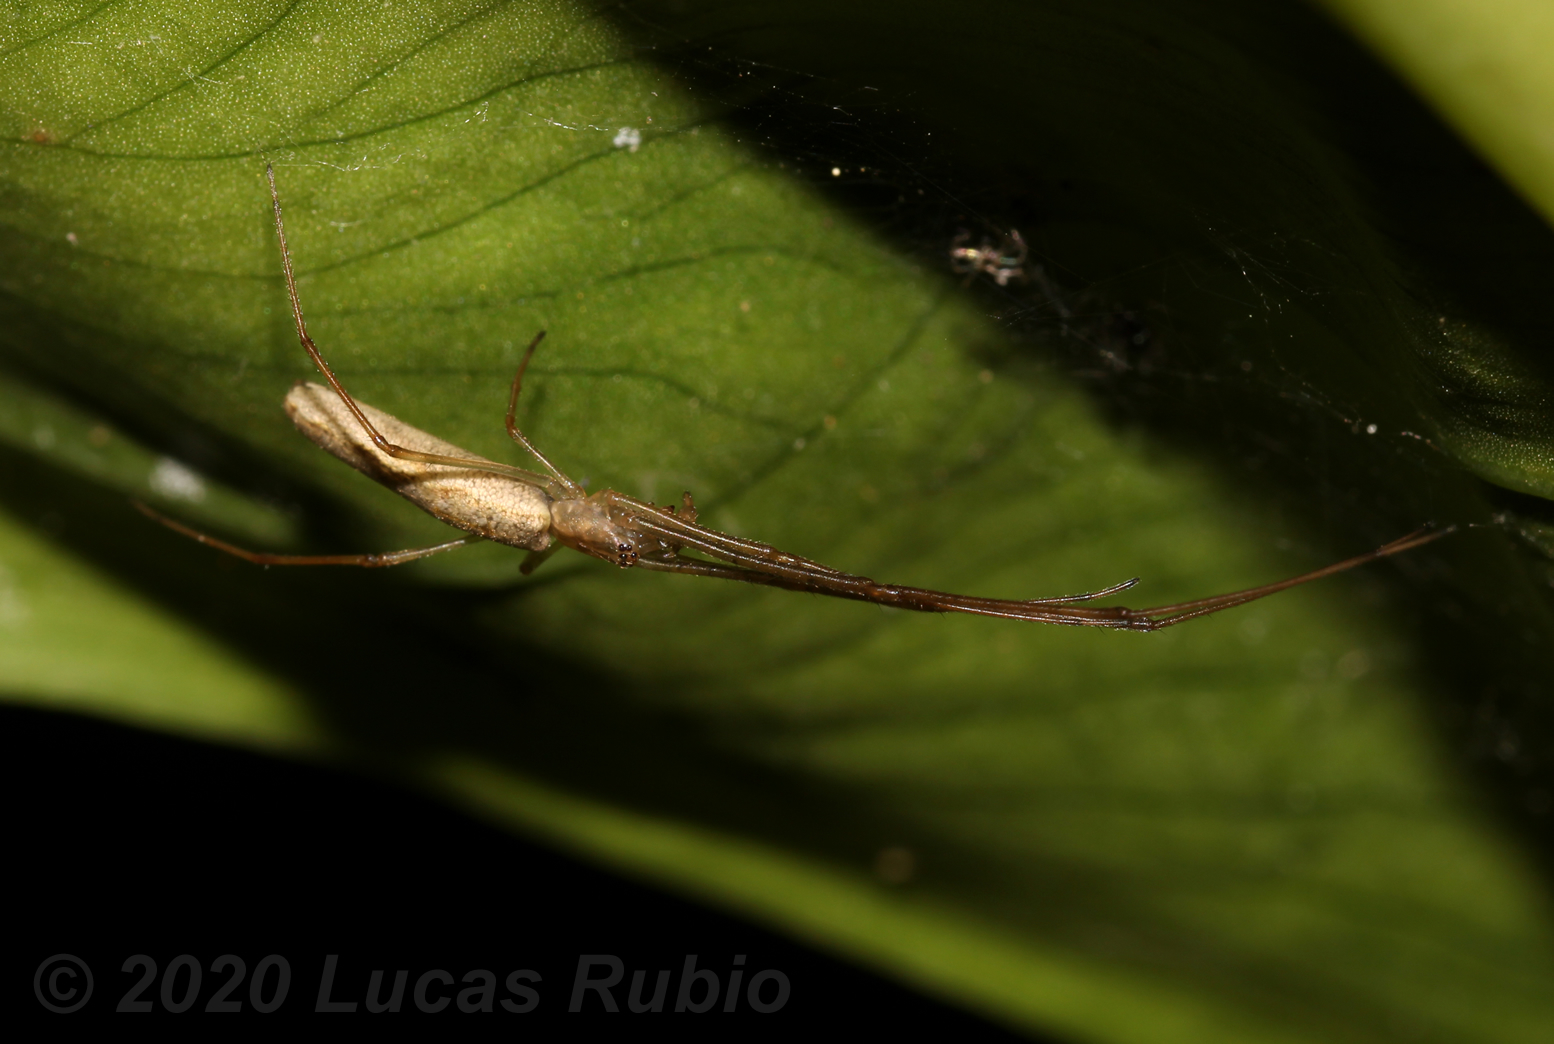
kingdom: Animalia
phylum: Arthropoda
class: Arachnida
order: Araneae
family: Tetragnathidae
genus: Tetragnatha
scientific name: Tetragnatha
